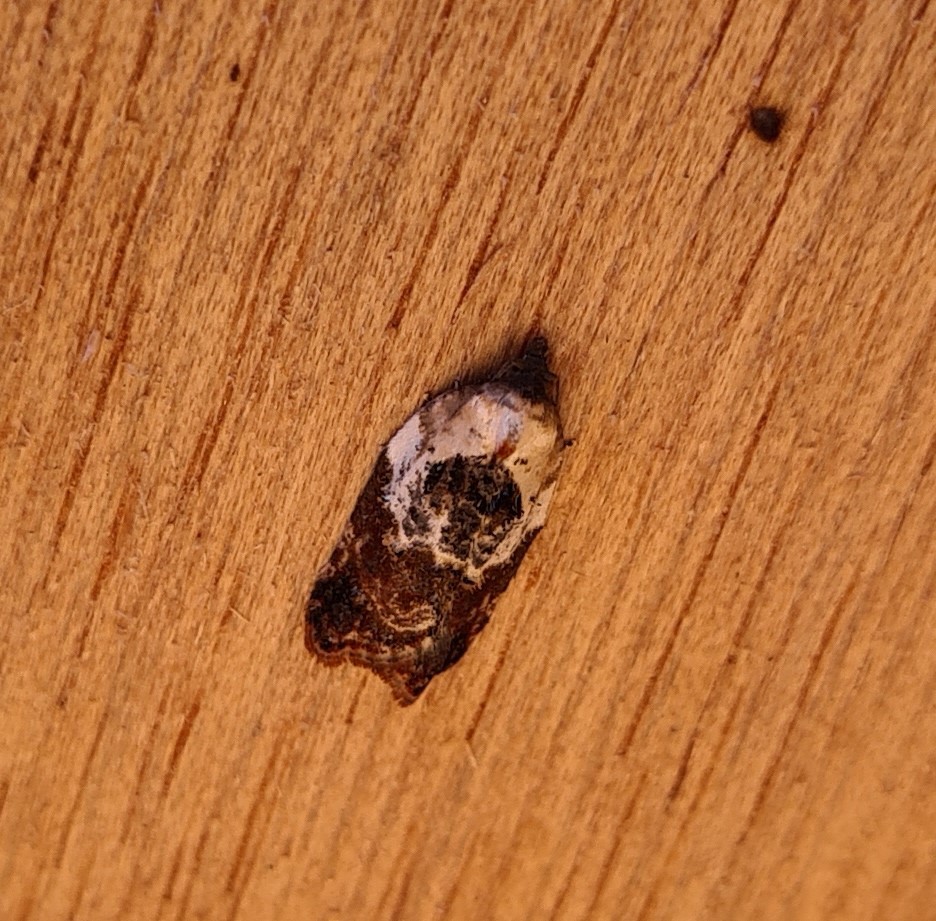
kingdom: Animalia
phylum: Arthropoda
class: Insecta
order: Lepidoptera
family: Tortricidae
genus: Acleris
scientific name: Acleris variegana
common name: Garden rose tortrix
